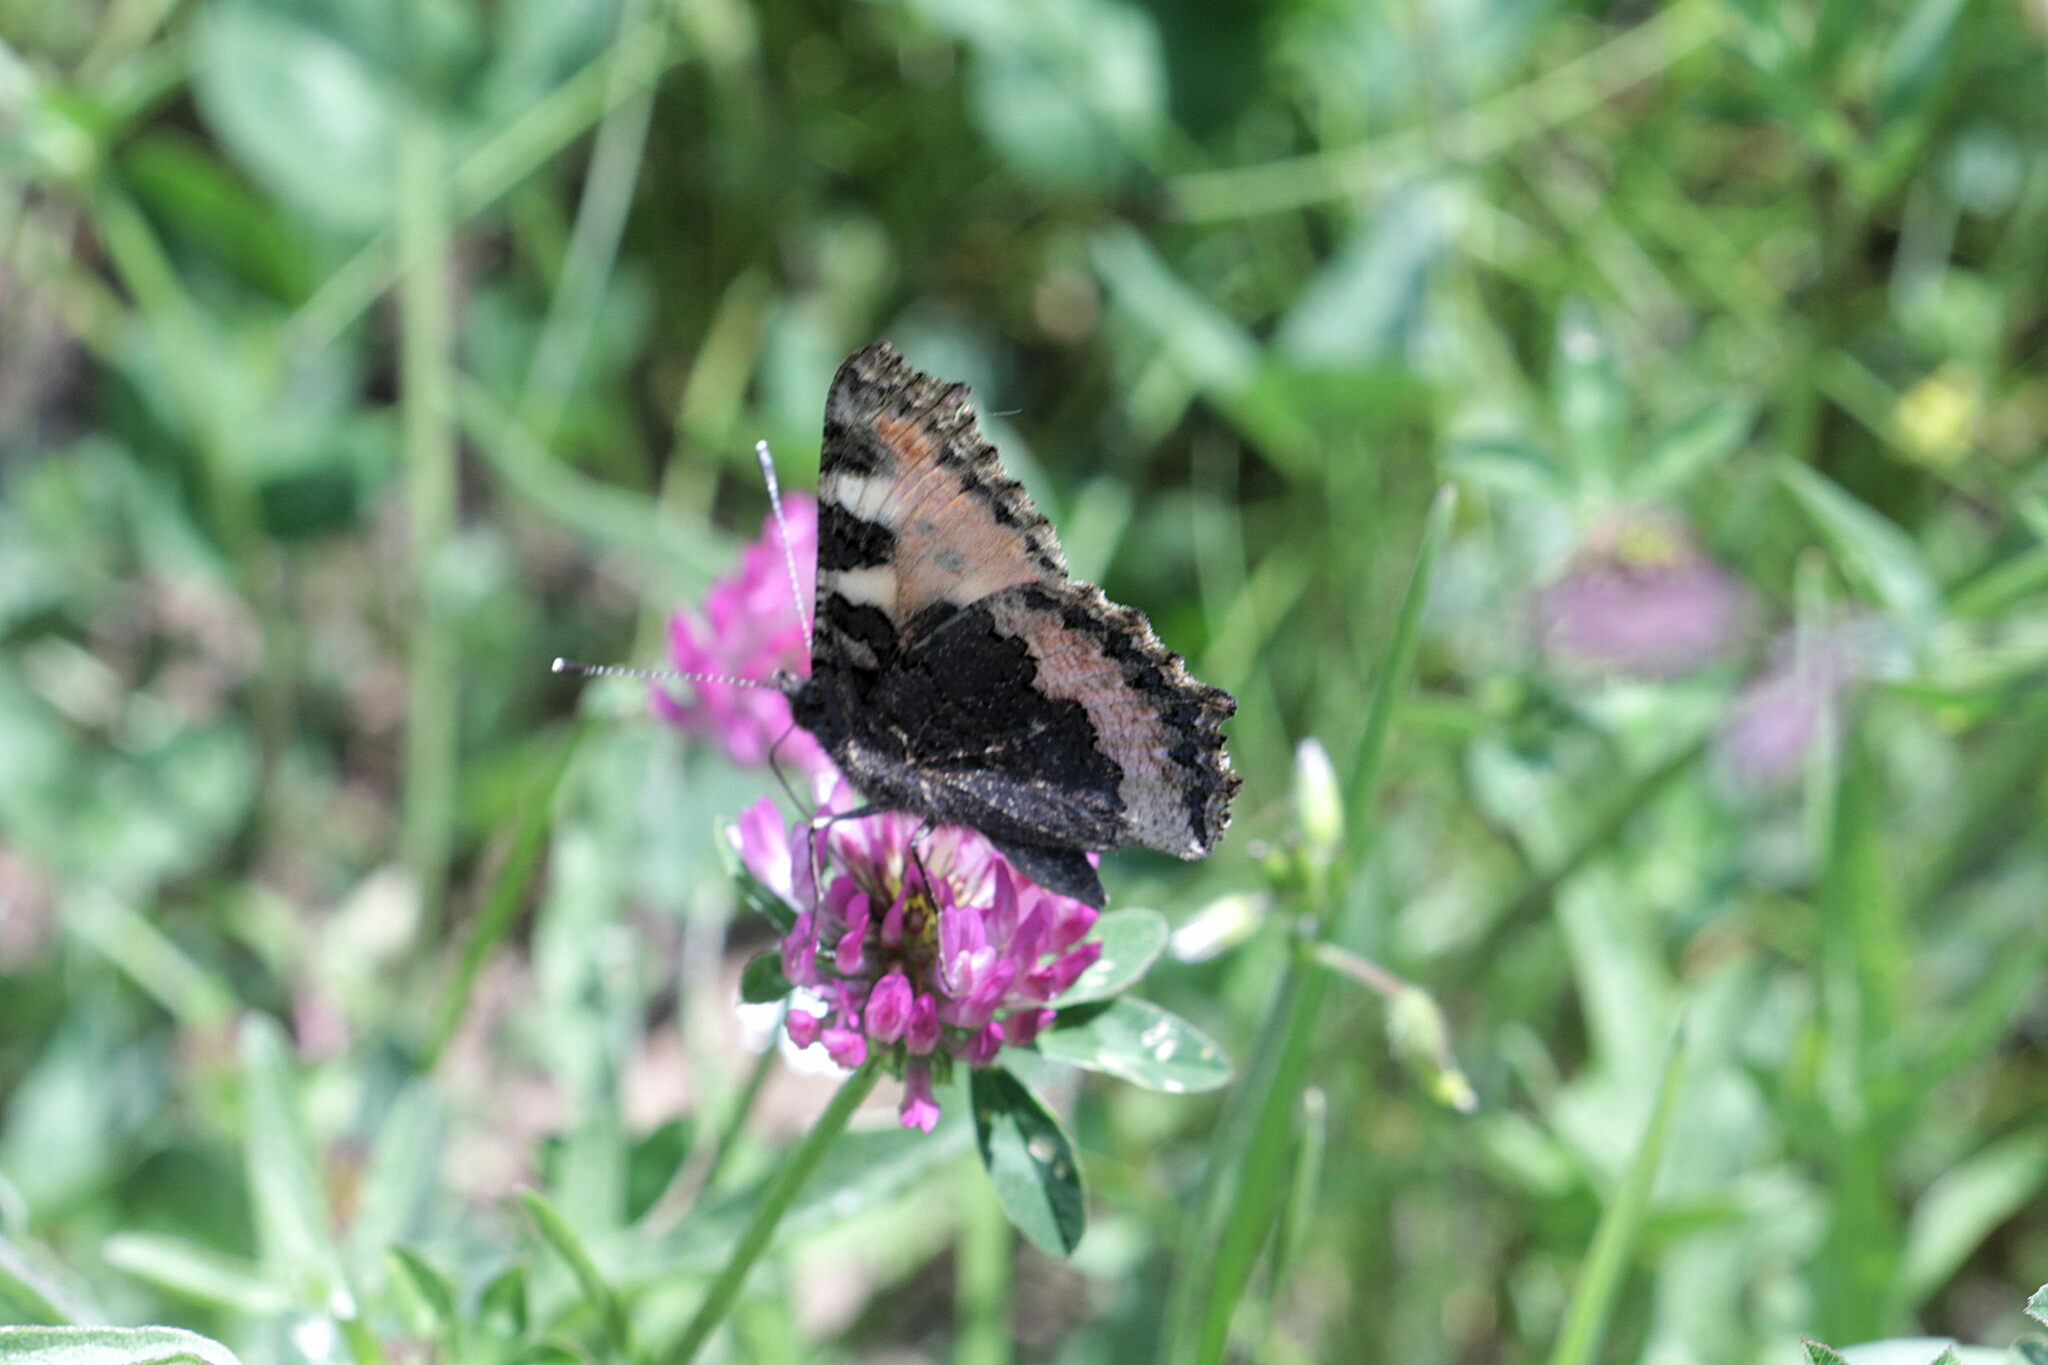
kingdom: Animalia
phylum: Arthropoda
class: Insecta
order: Lepidoptera
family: Nymphalidae
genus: Aglais
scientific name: Aglais urticae
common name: Small tortoiseshell
